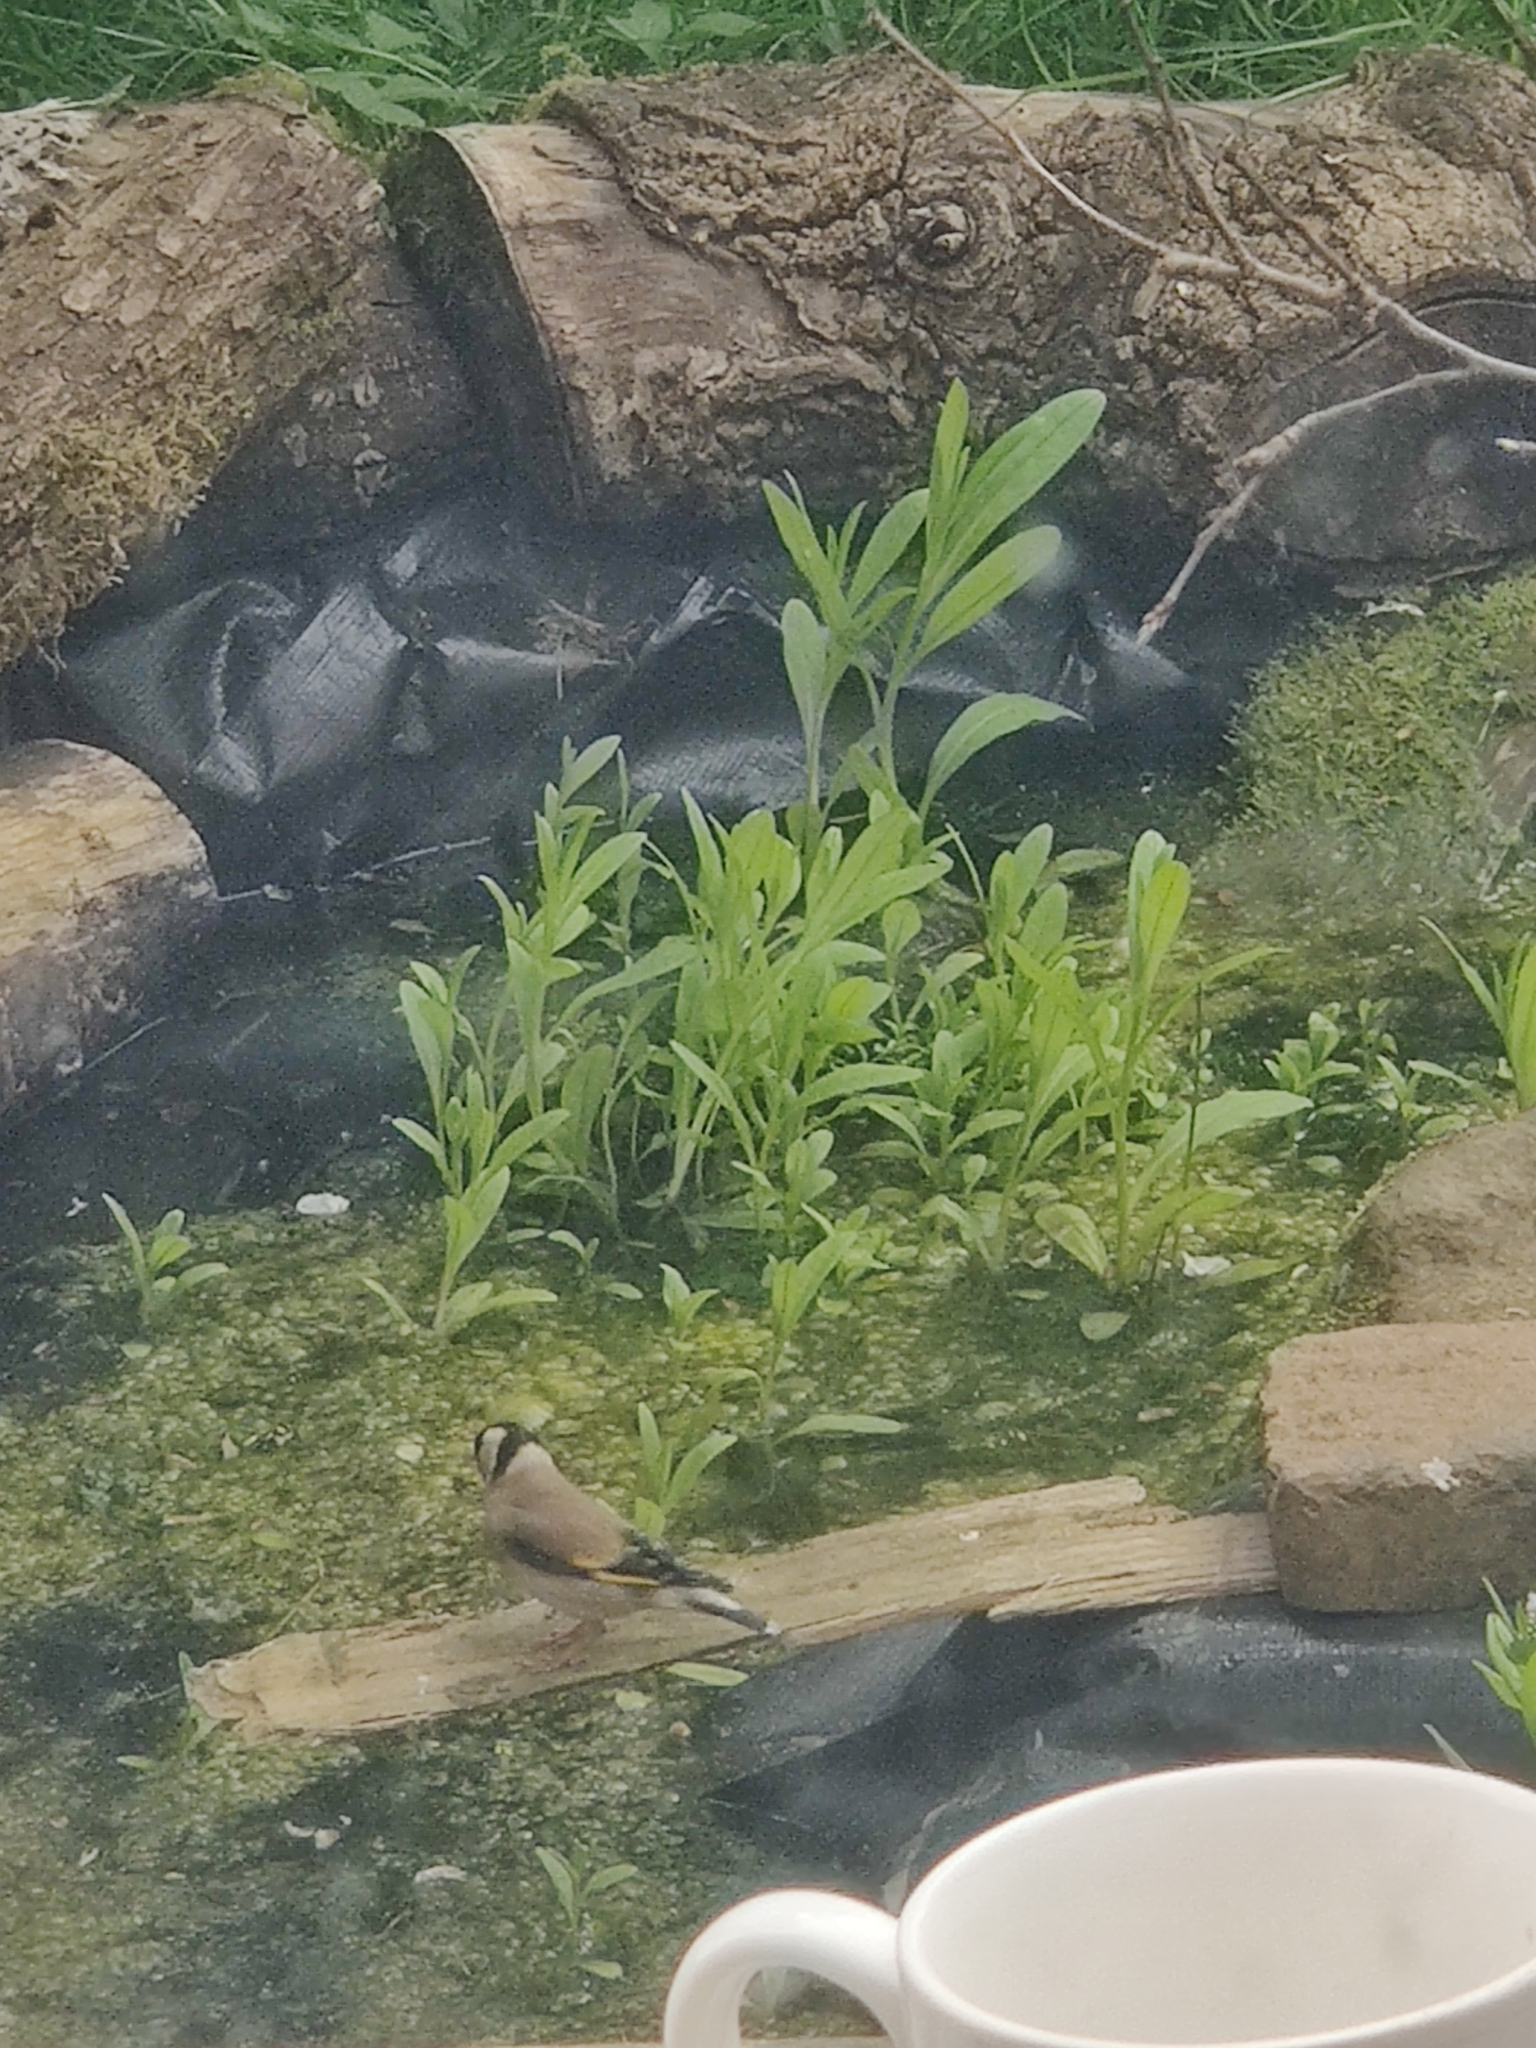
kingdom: Animalia
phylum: Chordata
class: Aves
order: Passeriformes
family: Fringillidae
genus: Carduelis
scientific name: Carduelis carduelis
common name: European goldfinch
